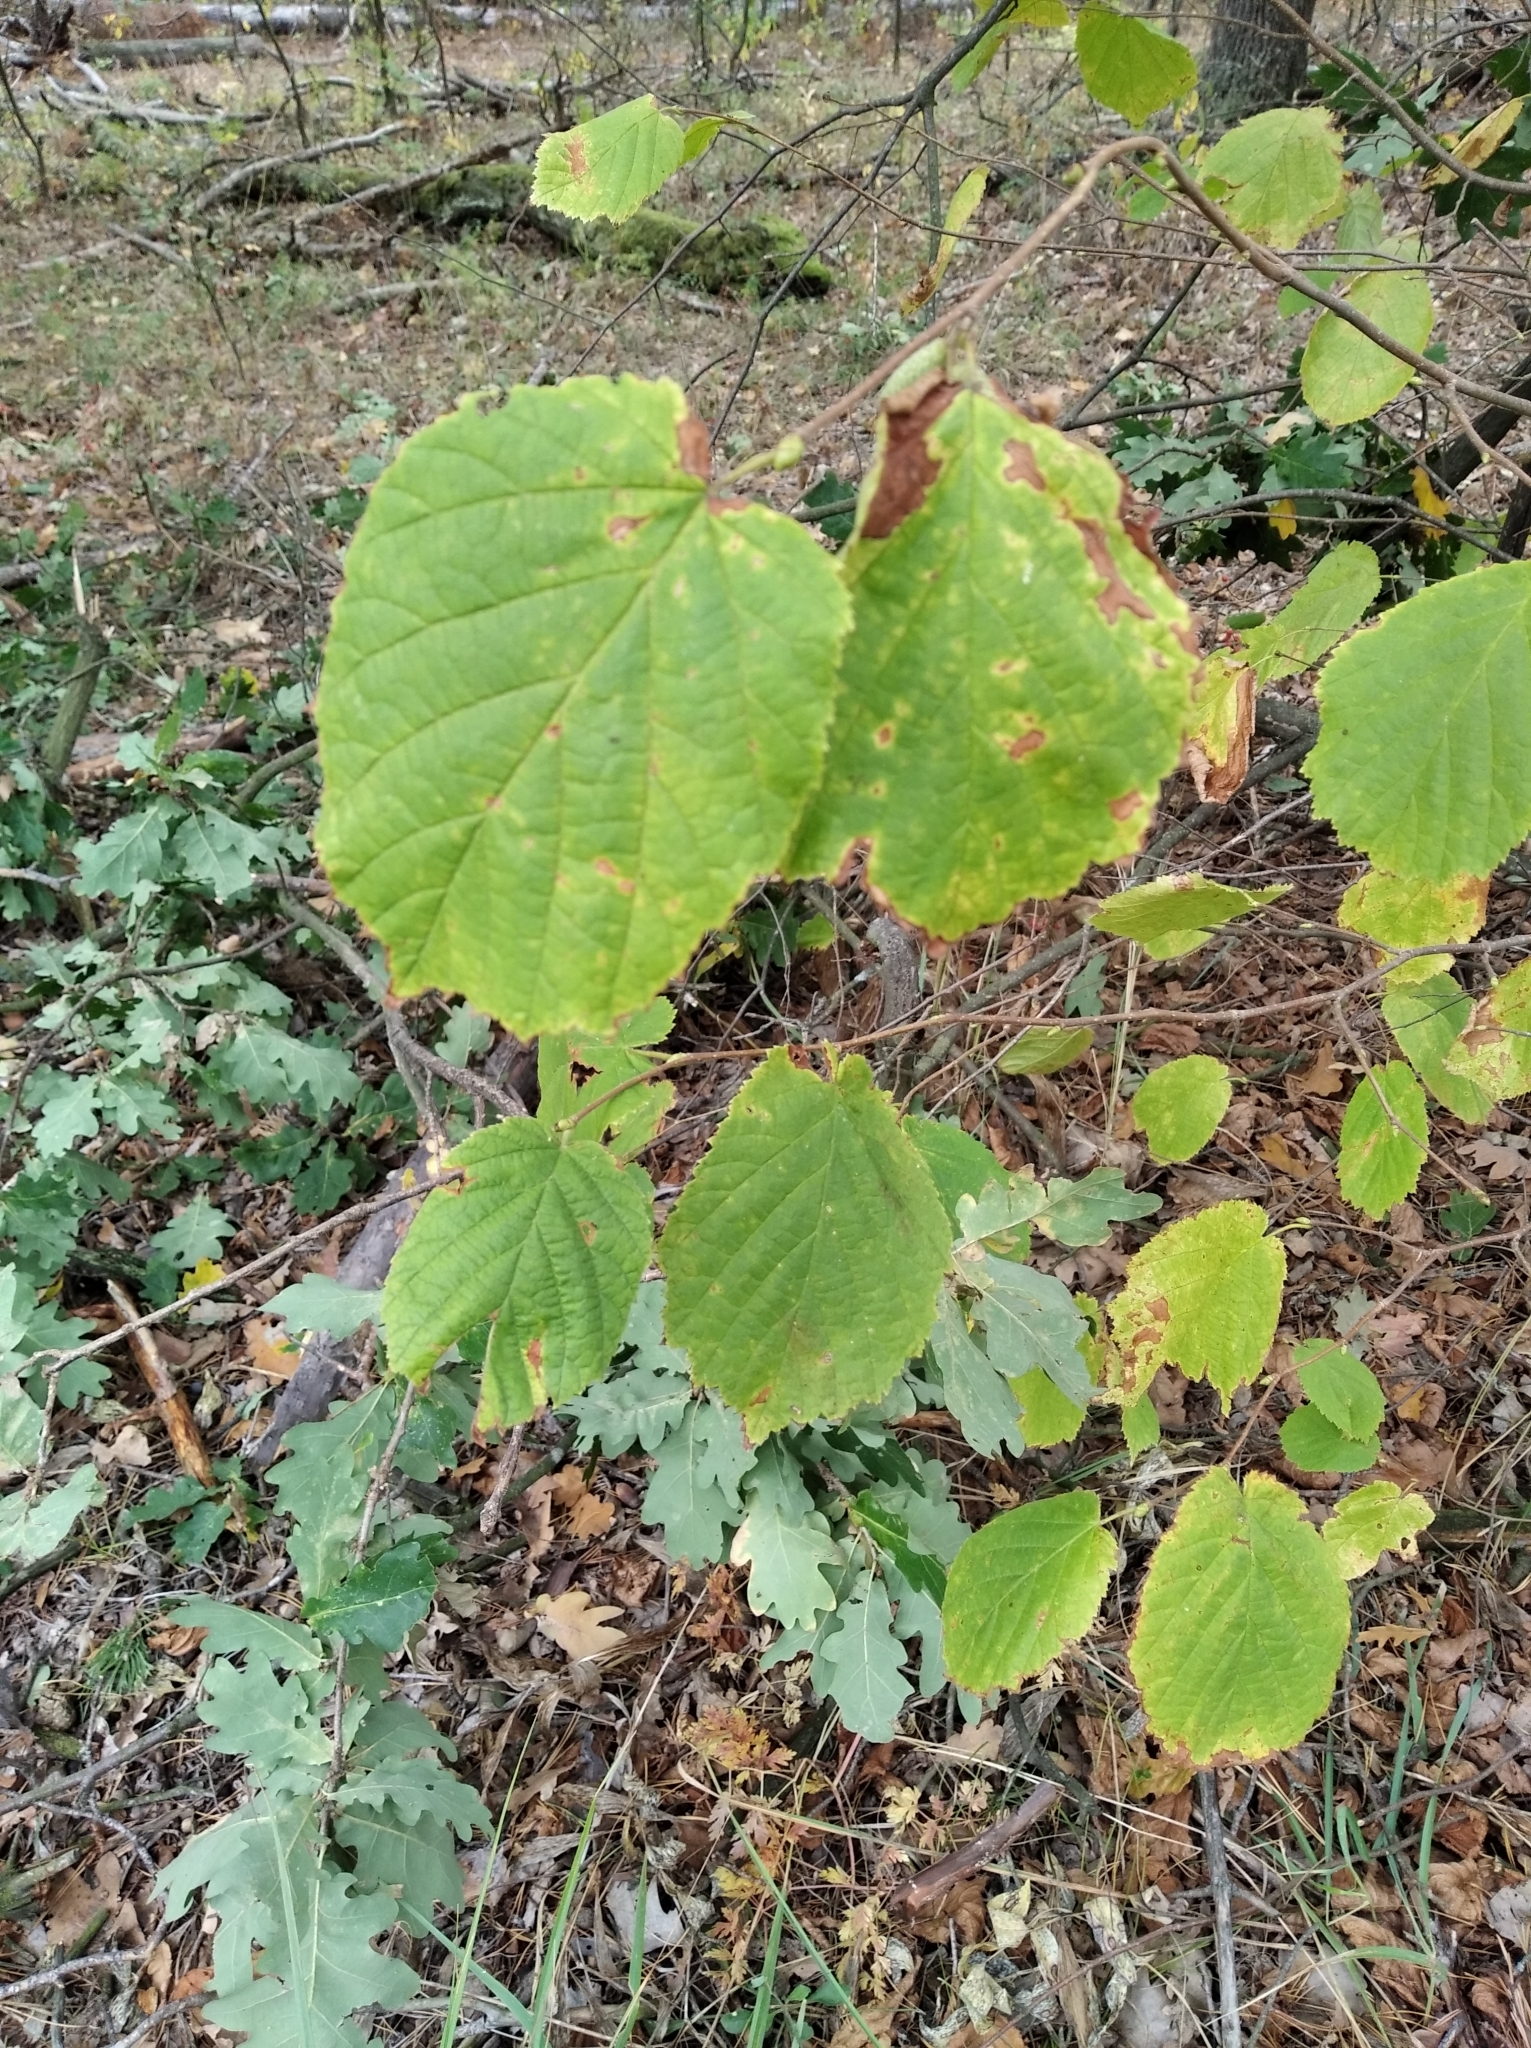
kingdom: Plantae
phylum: Tracheophyta
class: Magnoliopsida
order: Fagales
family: Betulaceae
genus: Corylus
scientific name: Corylus avellana
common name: European hazel
